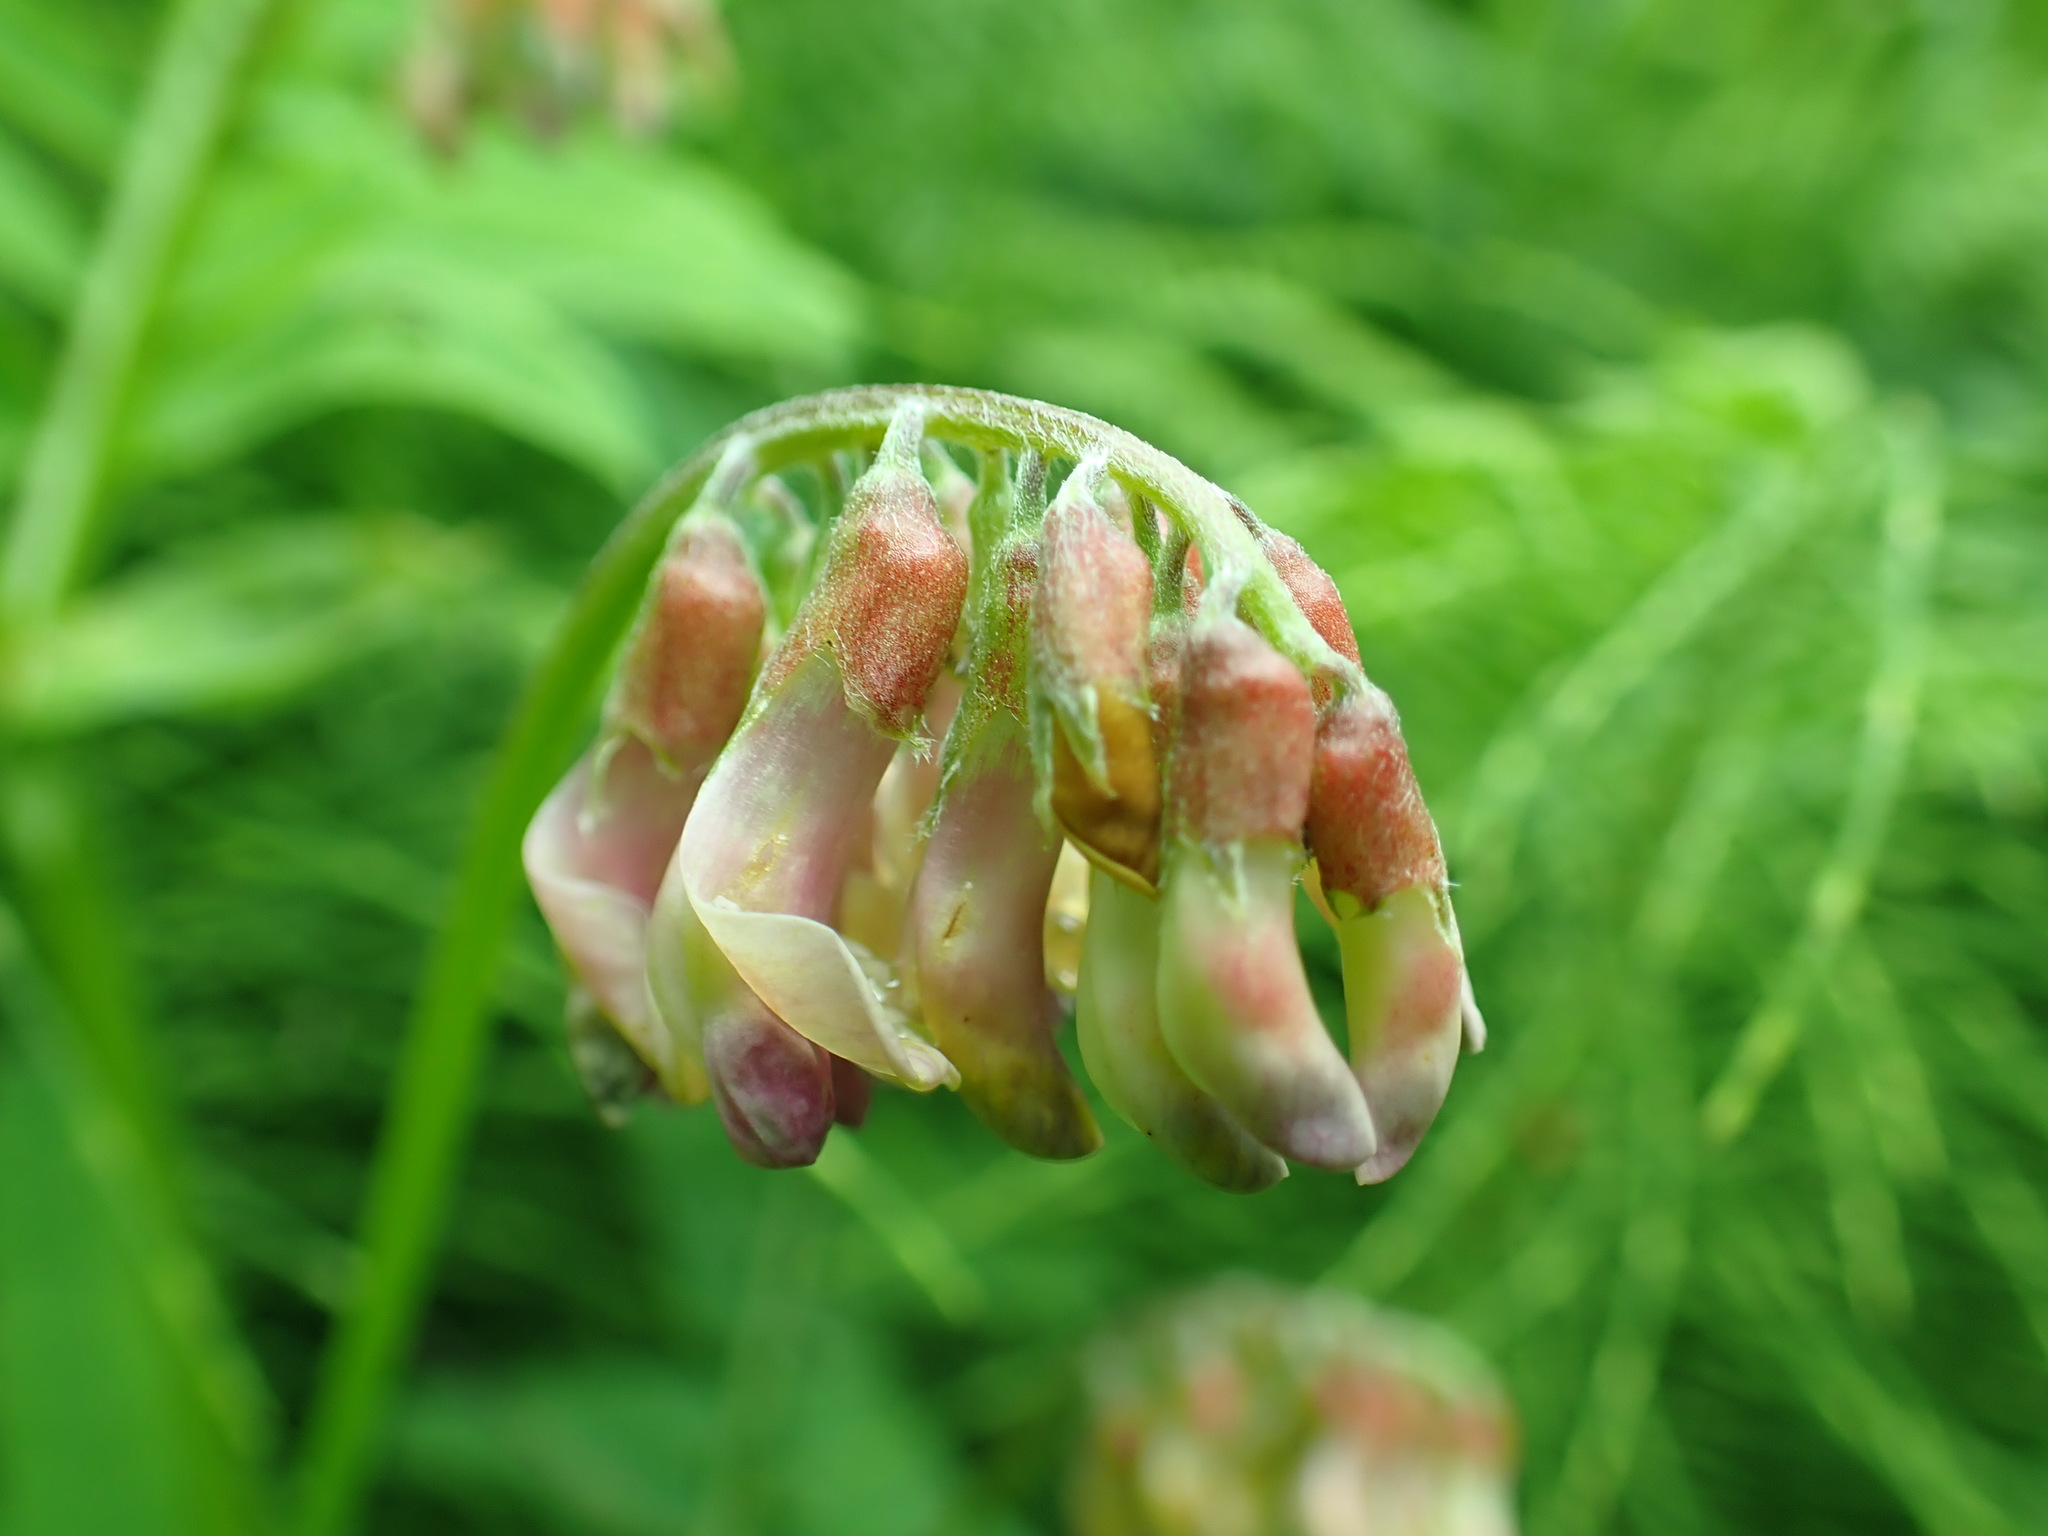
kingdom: Plantae
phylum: Tracheophyta
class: Magnoliopsida
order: Fabales
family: Fabaceae
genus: Vicia
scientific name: Vicia
